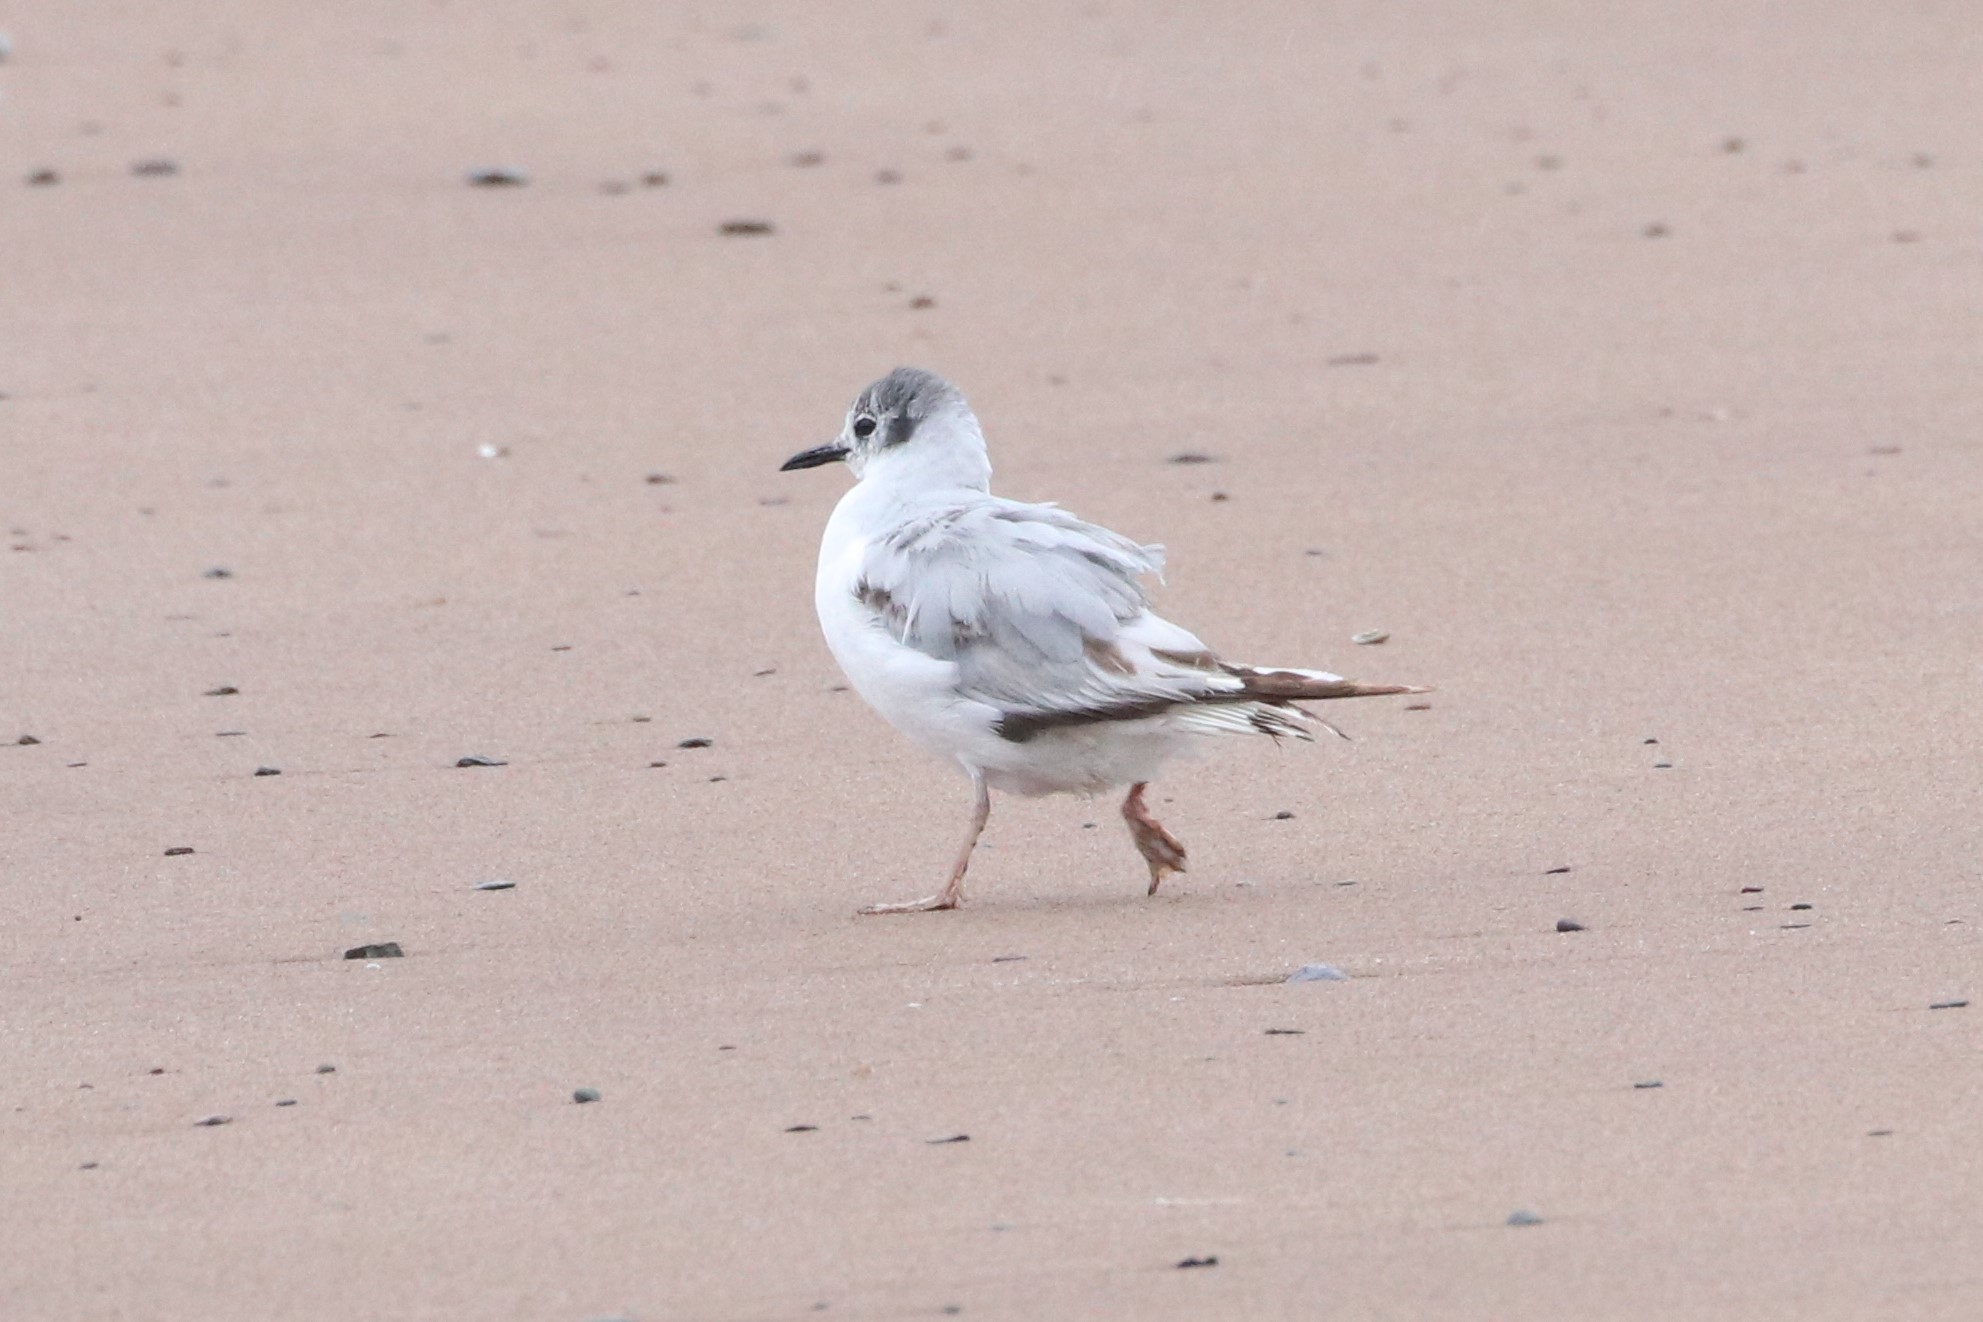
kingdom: Animalia
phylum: Chordata
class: Aves
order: Charadriiformes
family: Laridae
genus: Chroicocephalus
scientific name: Chroicocephalus philadelphia
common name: Bonaparte's gull
